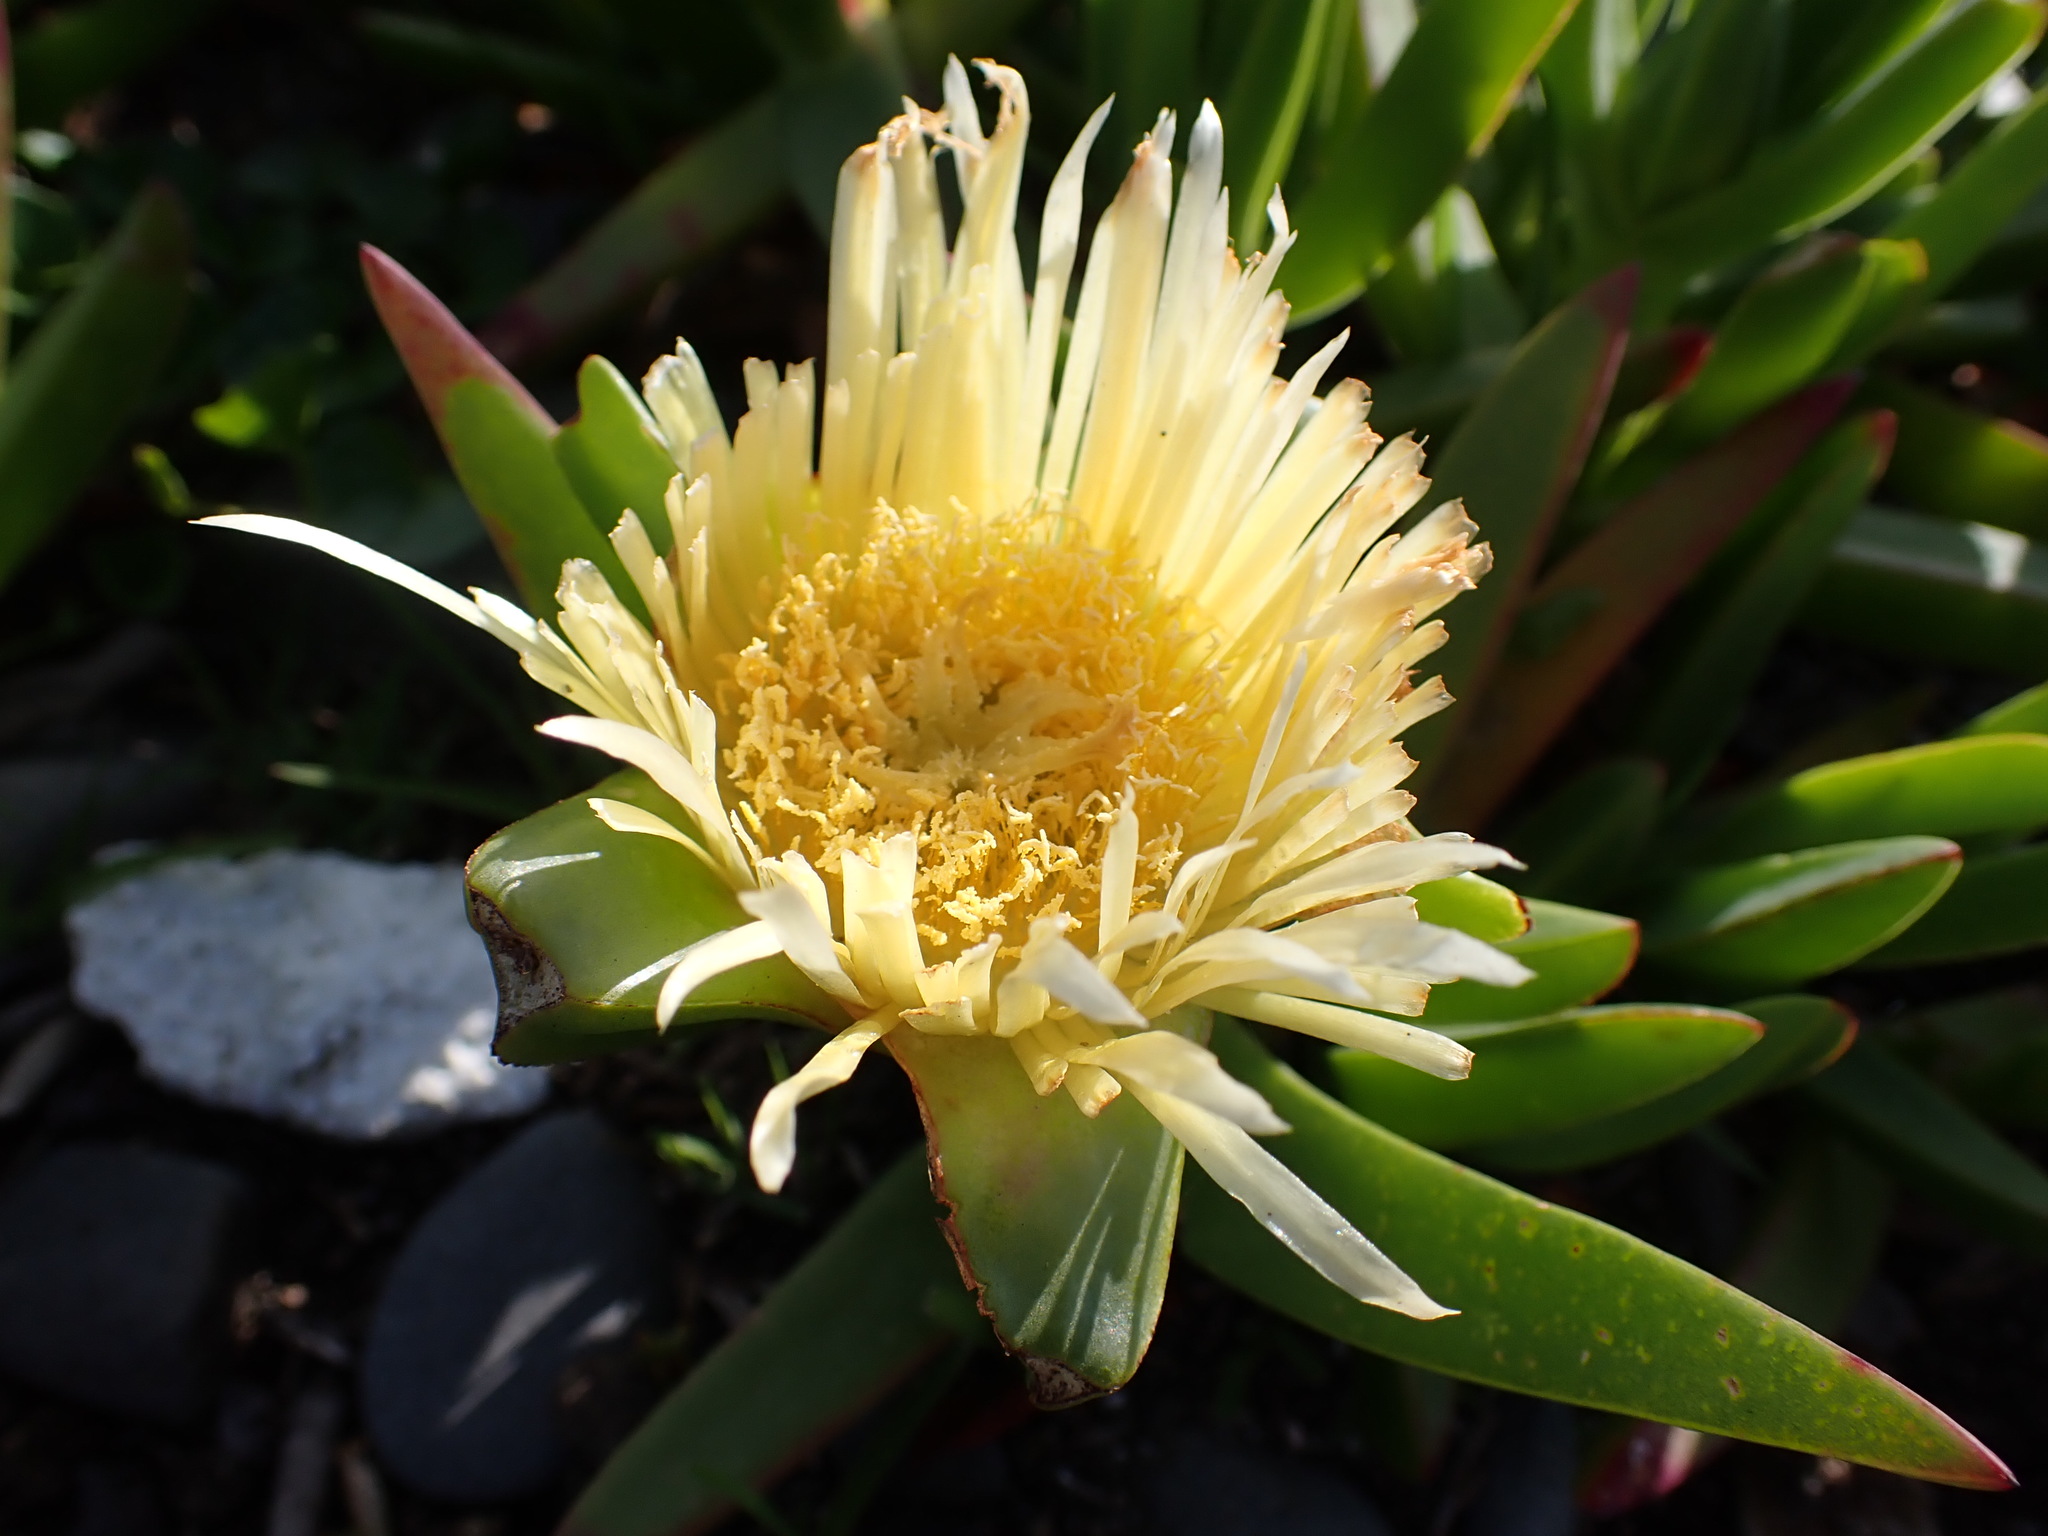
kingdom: Plantae
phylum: Tracheophyta
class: Magnoliopsida
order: Caryophyllales
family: Aizoaceae
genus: Carpobrotus
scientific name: Carpobrotus edulis
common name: Hottentot-fig
